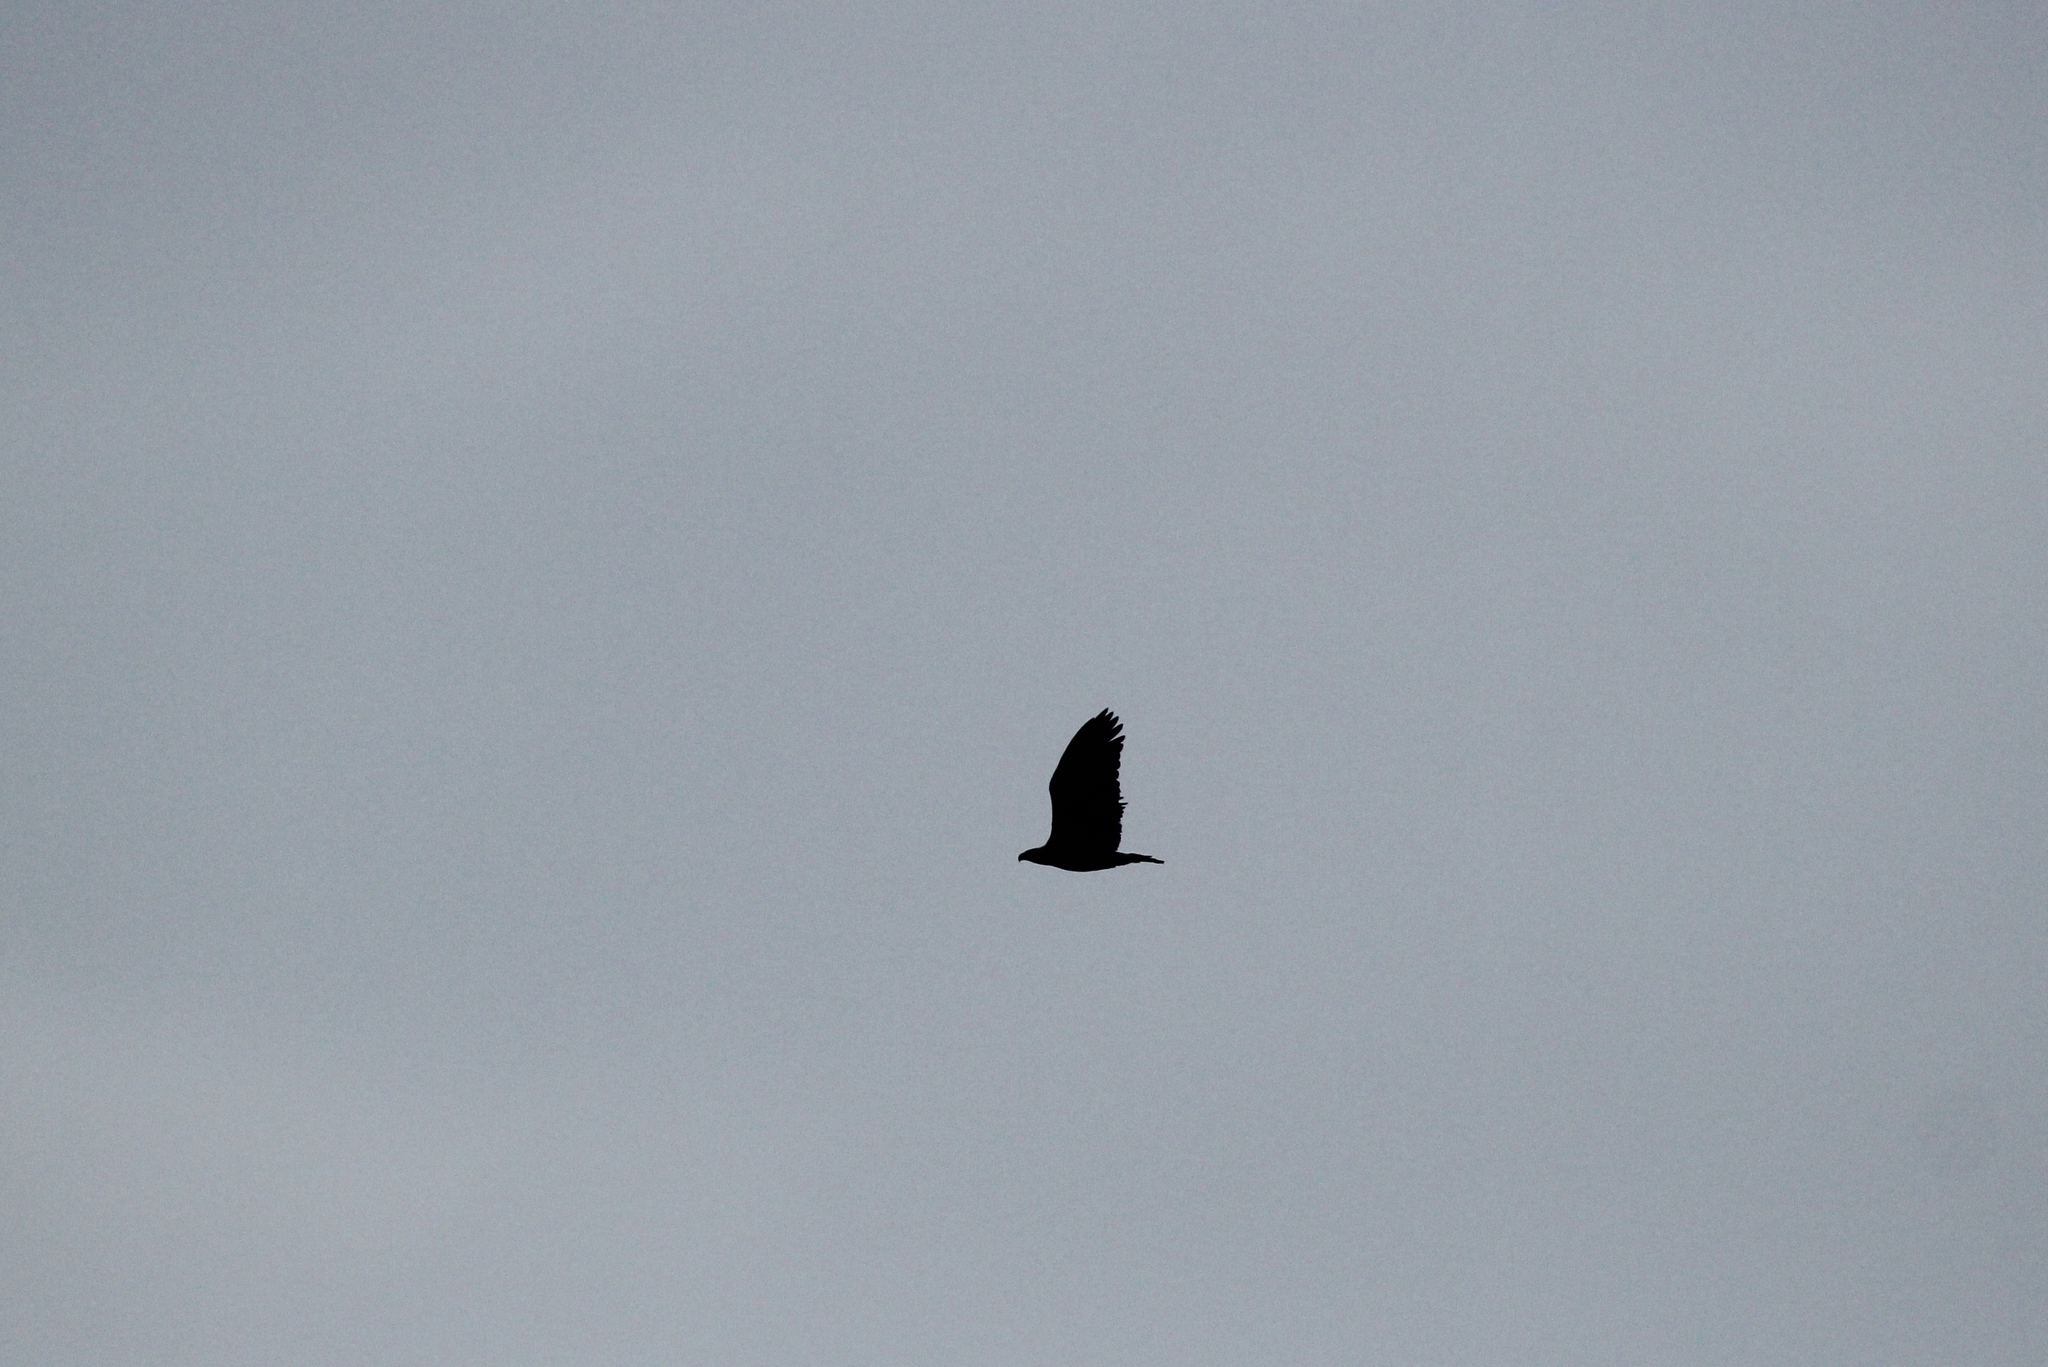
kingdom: Animalia
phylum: Chordata
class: Aves
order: Accipitriformes
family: Accipitridae
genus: Haliaeetus
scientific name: Haliaeetus leucocephalus
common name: Bald eagle
